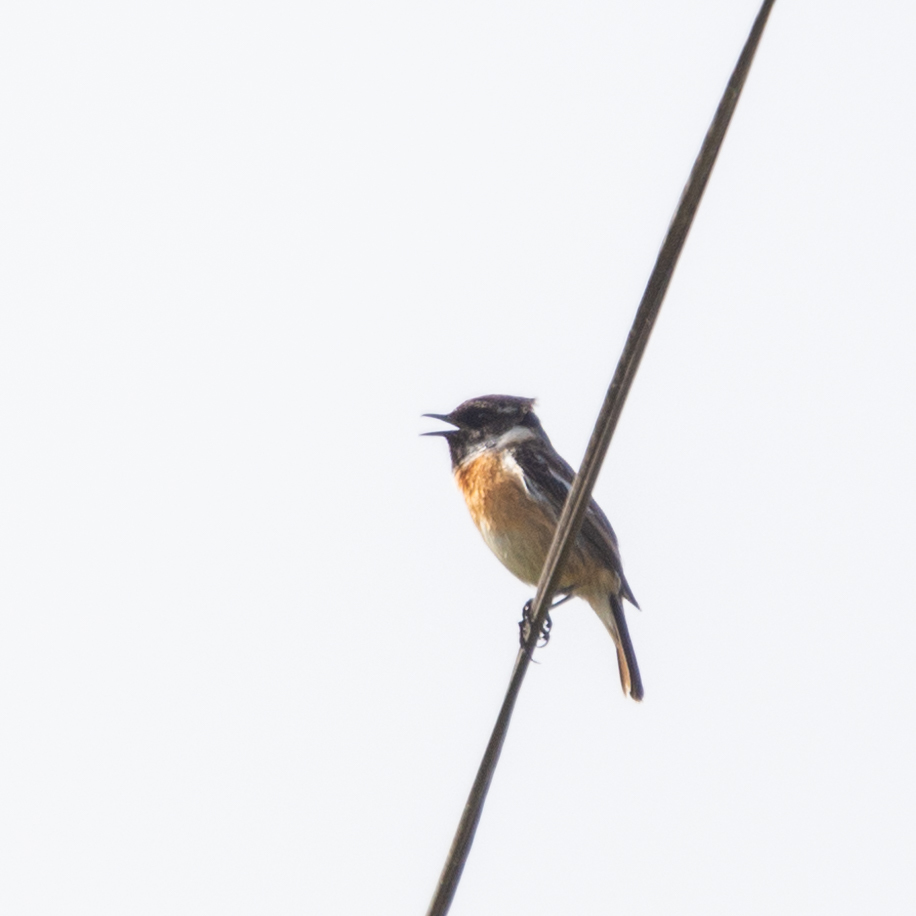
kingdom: Animalia
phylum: Chordata
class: Aves
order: Passeriformes
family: Muscicapidae
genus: Saxicola
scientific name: Saxicola rubicola
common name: European stonechat
